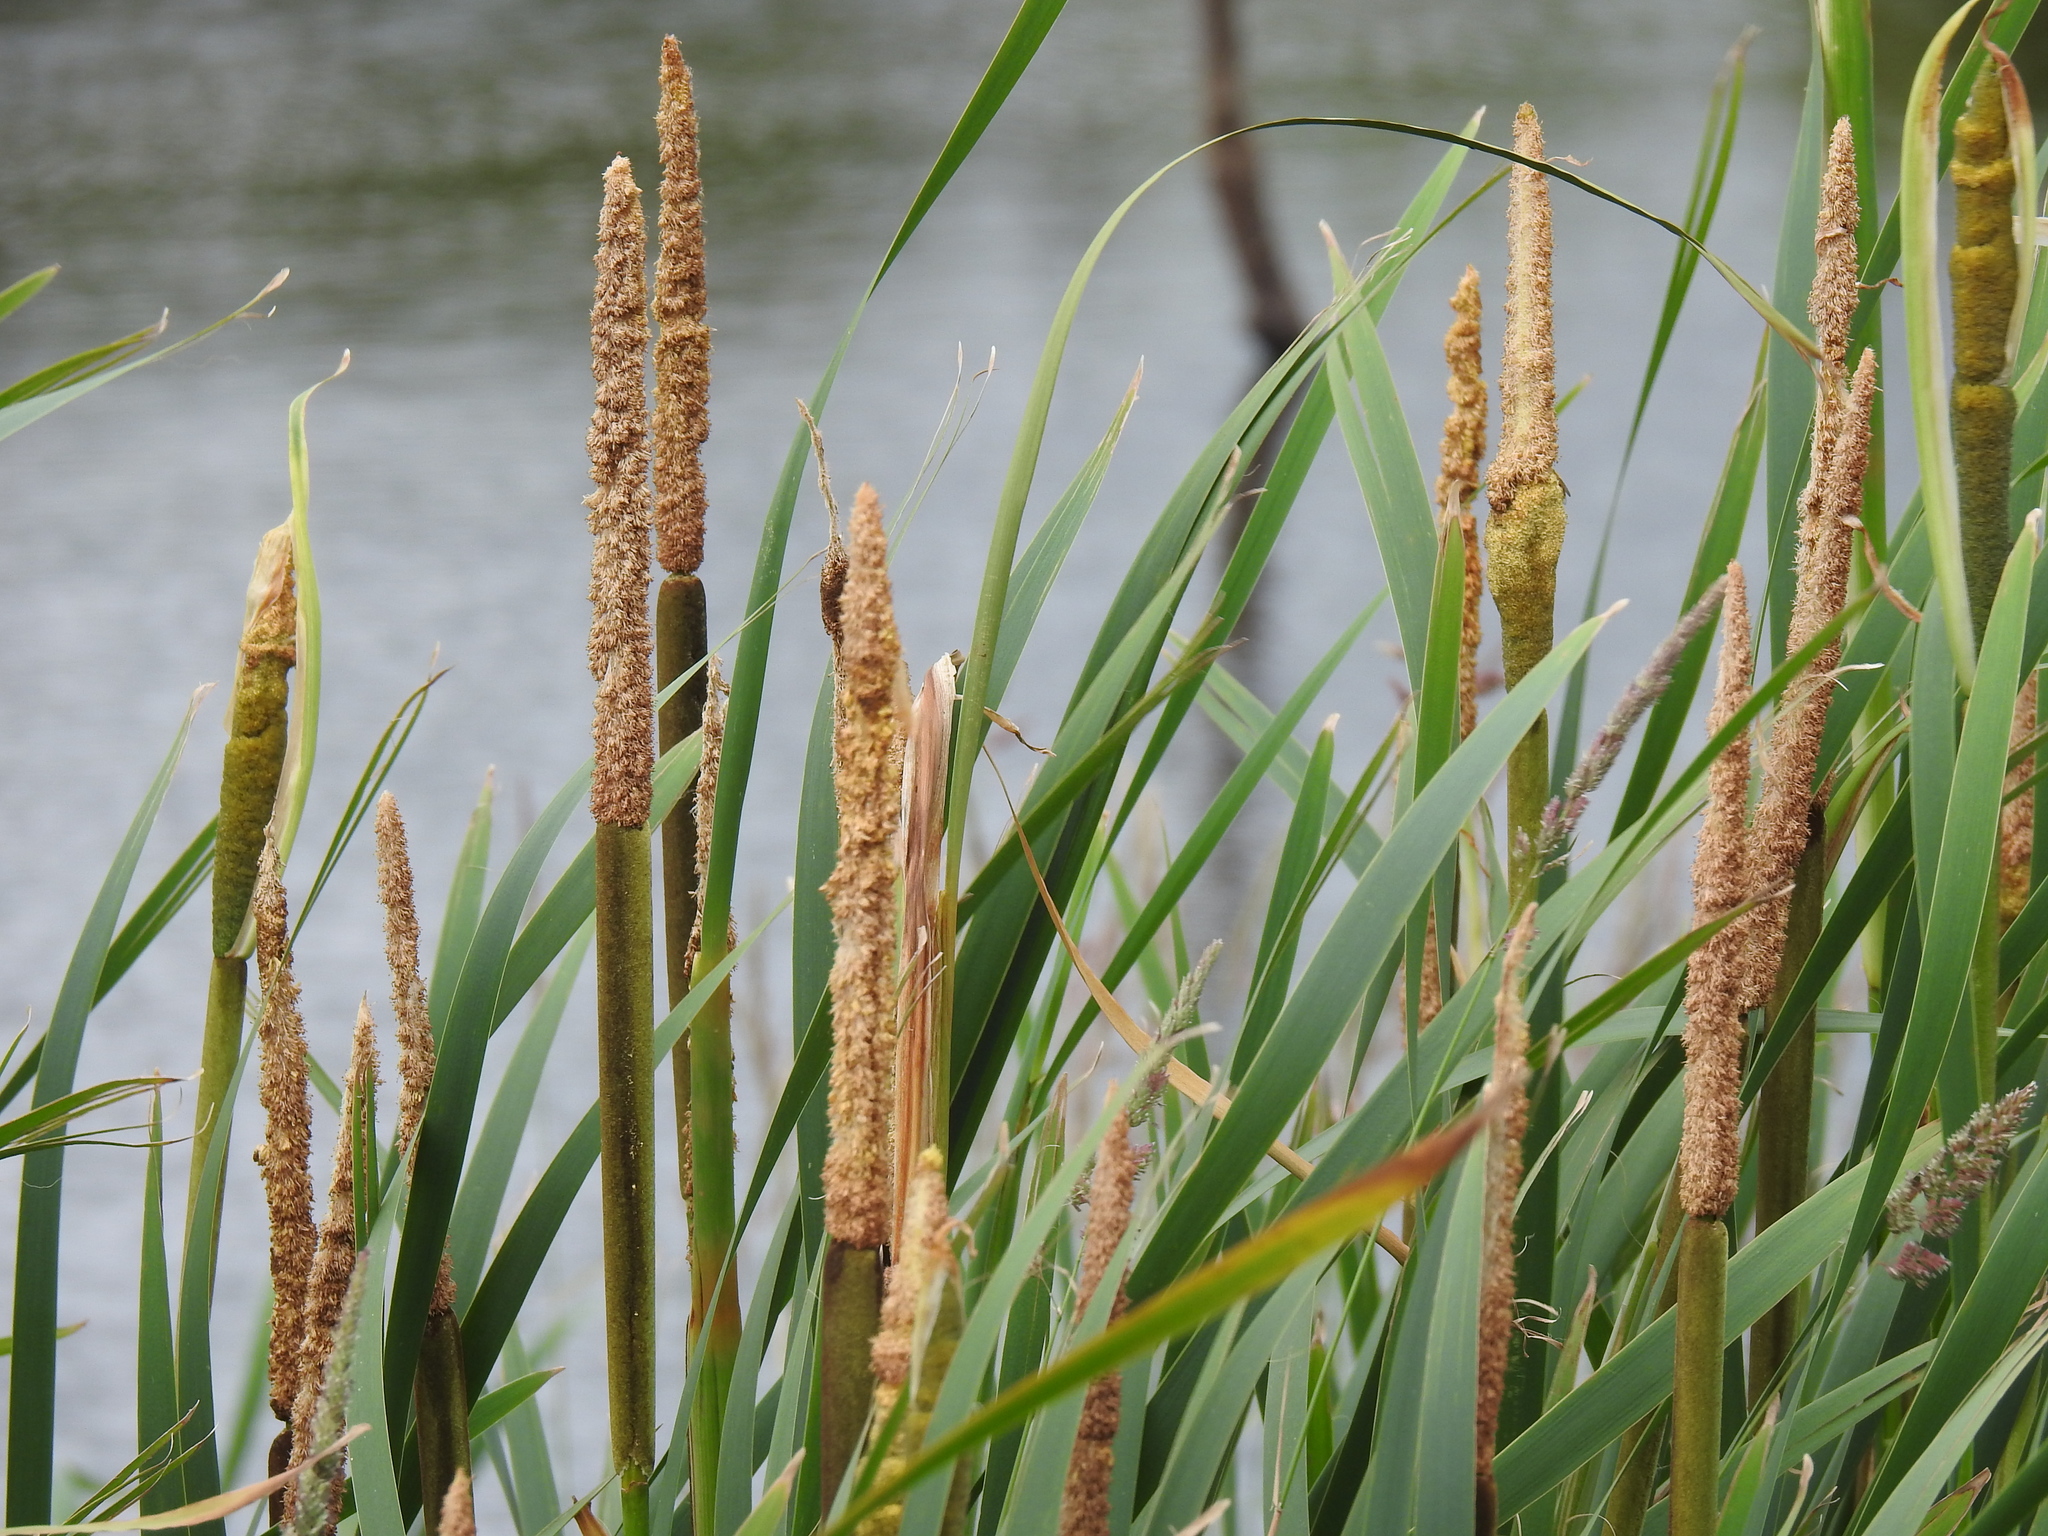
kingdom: Plantae
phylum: Tracheophyta
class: Liliopsida
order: Poales
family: Typhaceae
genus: Typha
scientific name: Typha angustifolia
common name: Lesser bulrush
